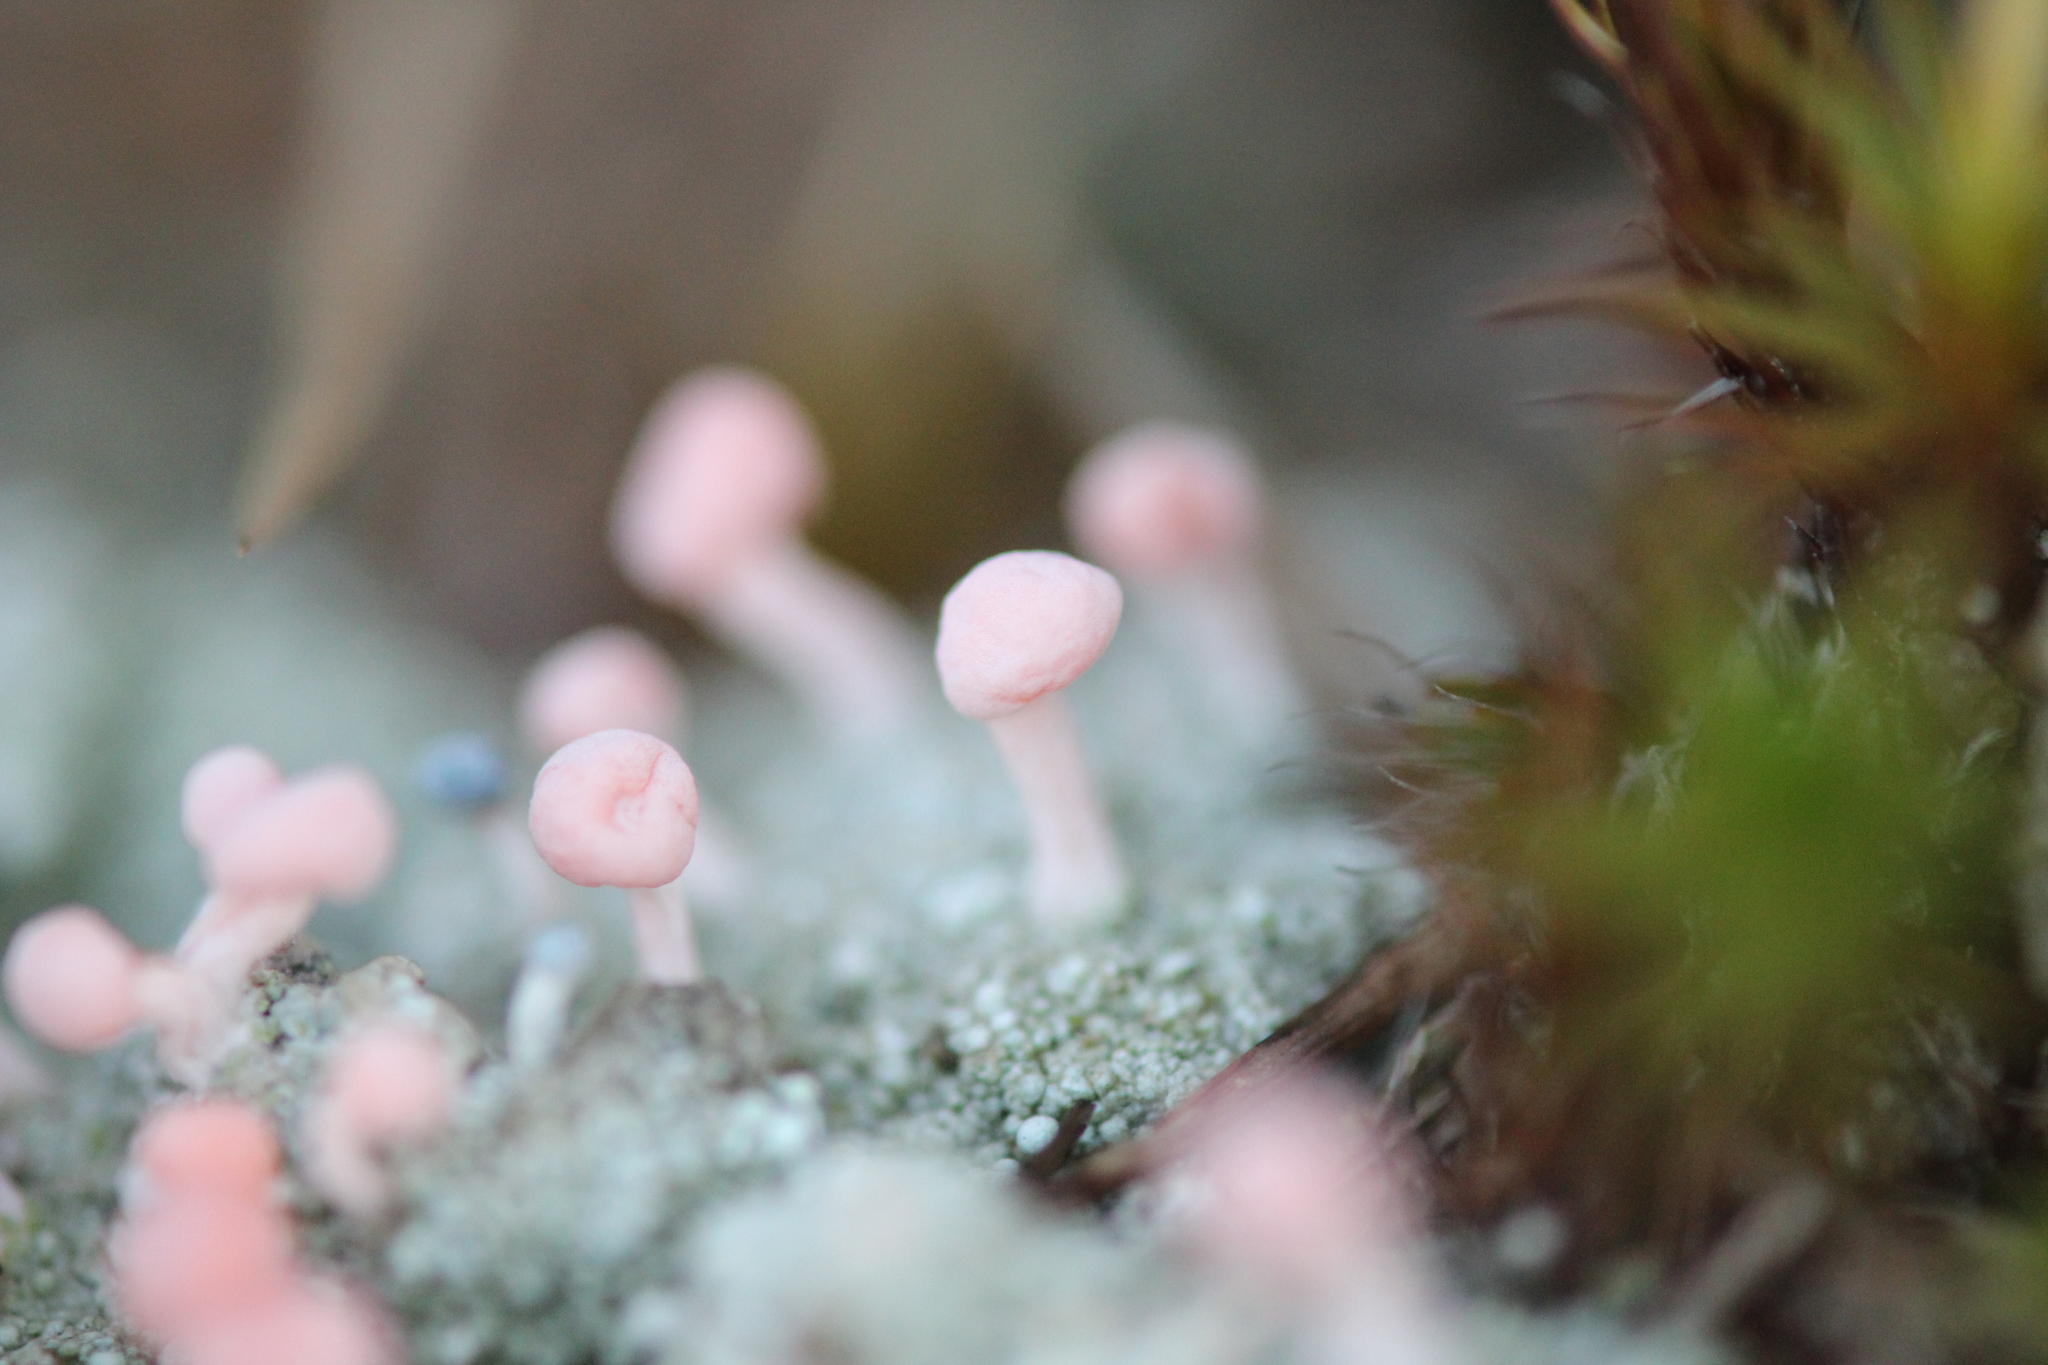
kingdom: Fungi
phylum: Ascomycota
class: Lecanoromycetes
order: Pertusariales
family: Icmadophilaceae
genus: Dibaeis
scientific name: Dibaeis baeomyces
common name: Pink earth lichen
